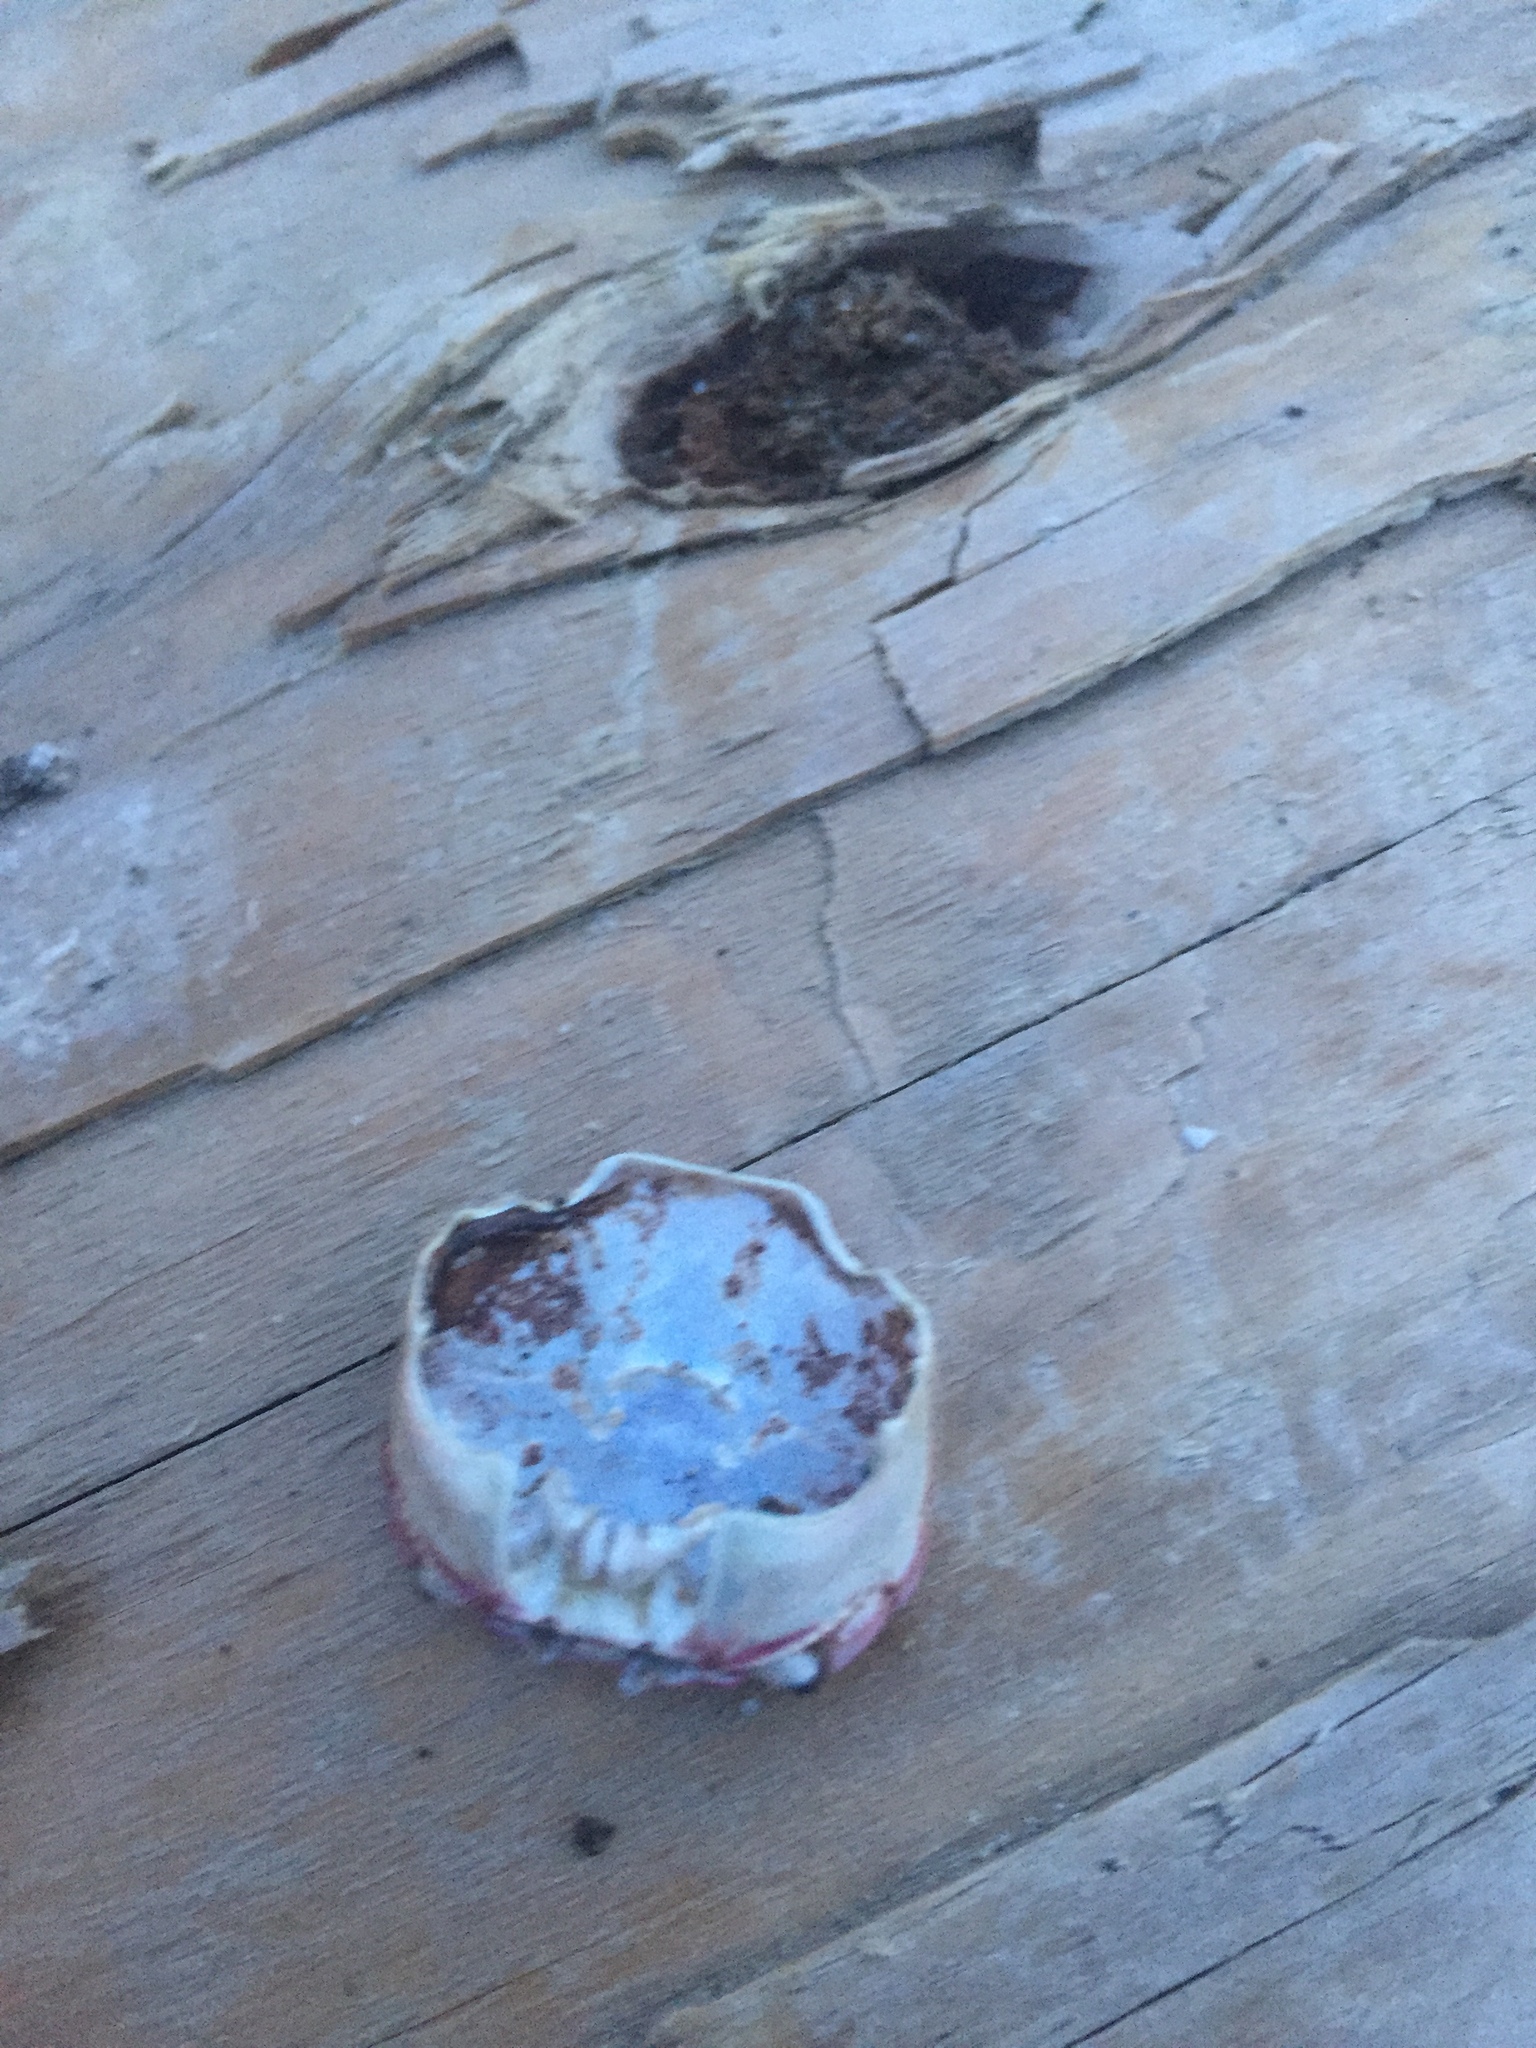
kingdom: Animalia
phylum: Arthropoda
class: Malacostraca
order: Decapoda
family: Varunidae
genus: Hemigrapsus
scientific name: Hemigrapsus nudus
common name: Purple shore crab
